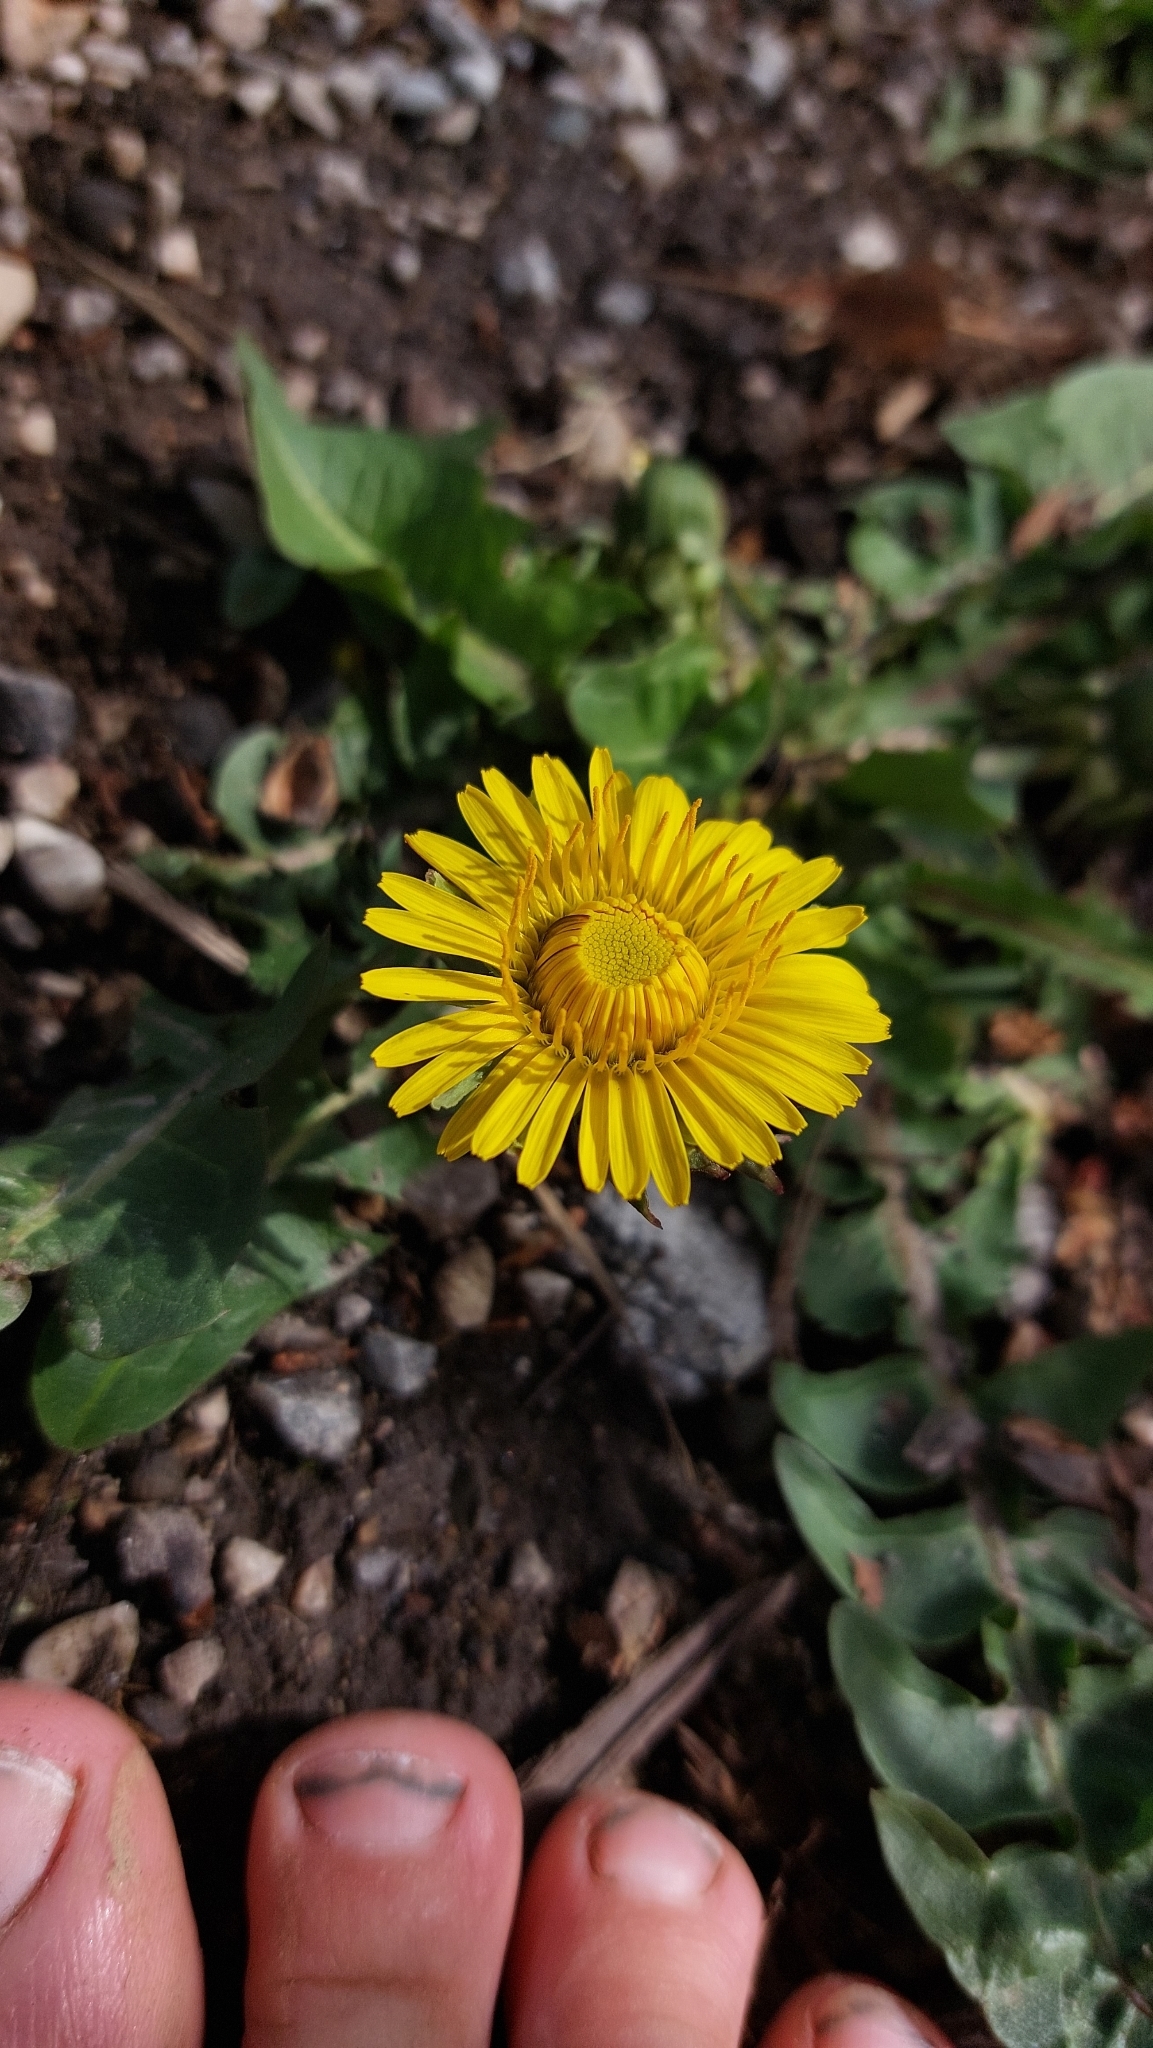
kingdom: Plantae
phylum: Tracheophyta
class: Magnoliopsida
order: Asterales
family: Asteraceae
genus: Taraxacum
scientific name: Taraxacum
